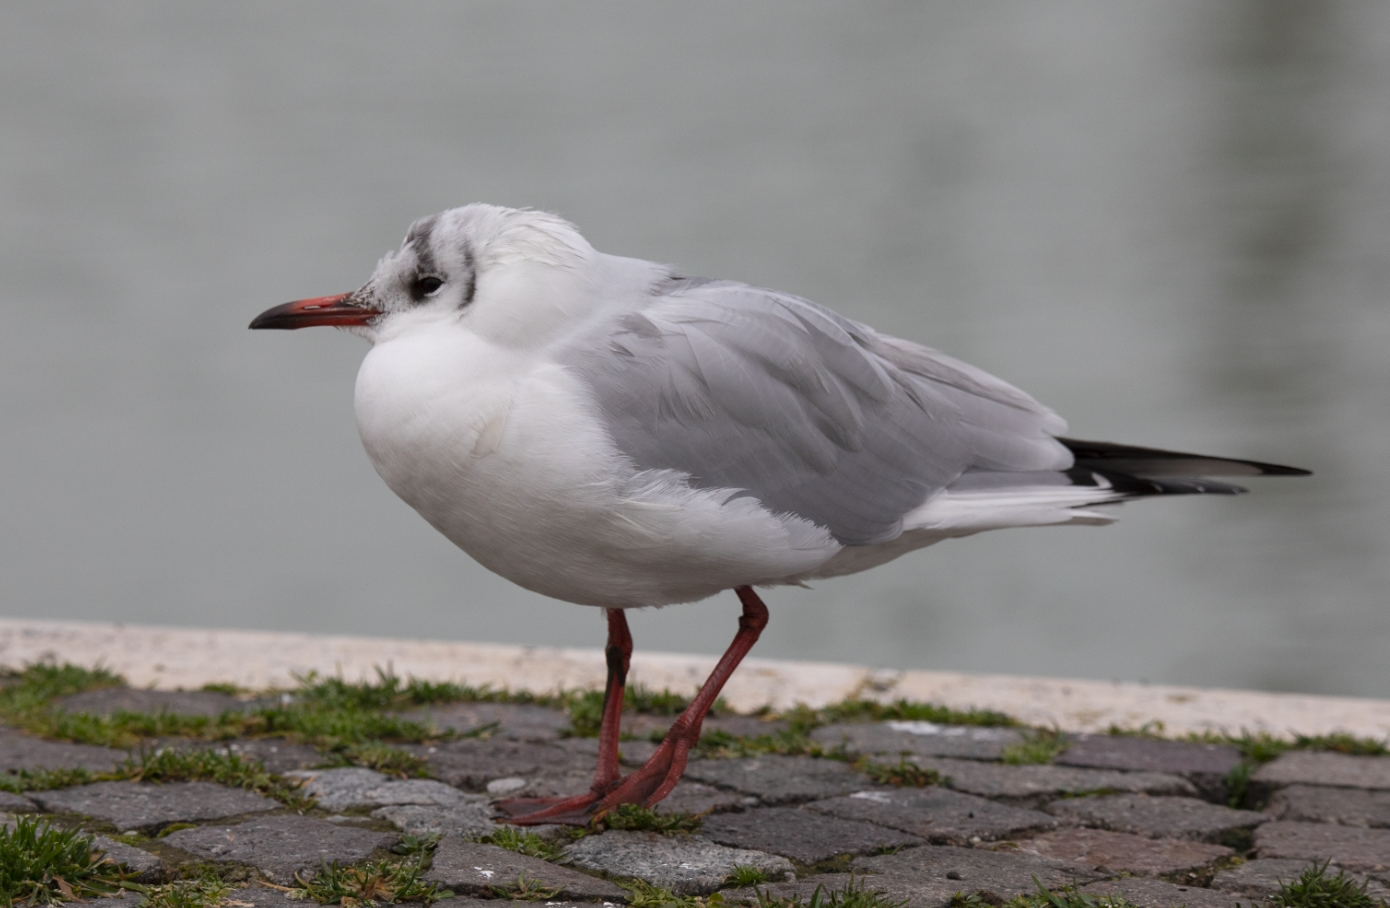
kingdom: Animalia
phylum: Chordata
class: Aves
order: Charadriiformes
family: Laridae
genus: Chroicocephalus
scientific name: Chroicocephalus ridibundus
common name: Black-headed gull
